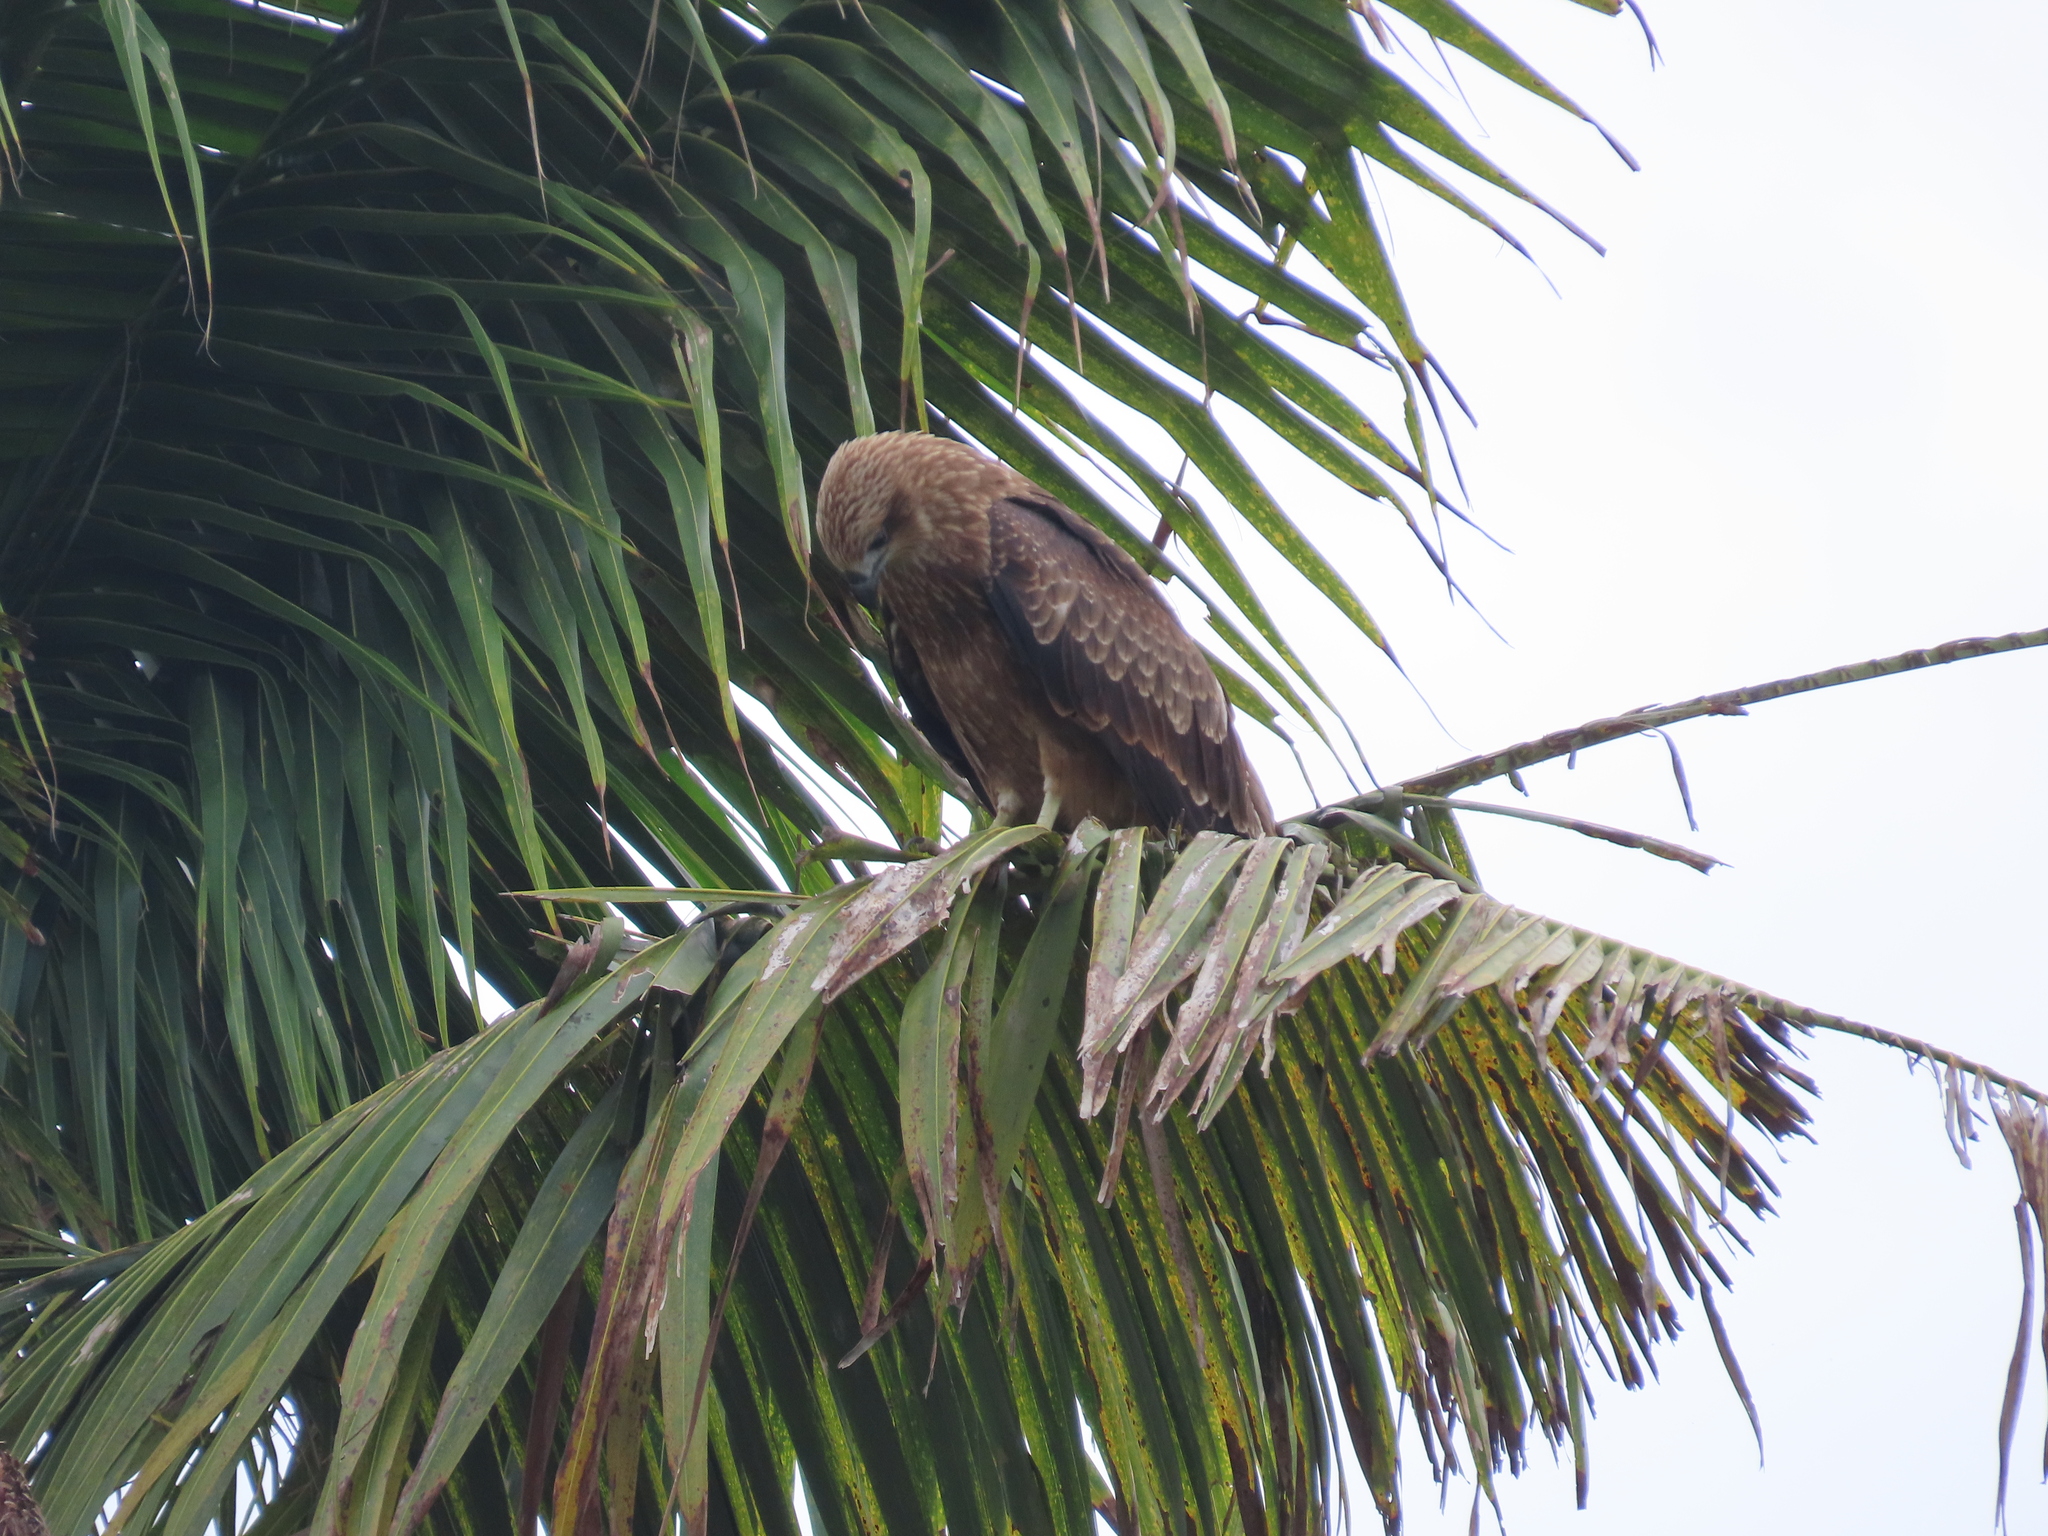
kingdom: Animalia
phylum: Chordata
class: Aves
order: Accipitriformes
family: Accipitridae
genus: Haliastur
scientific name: Haliastur indus
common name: Brahminy kite
